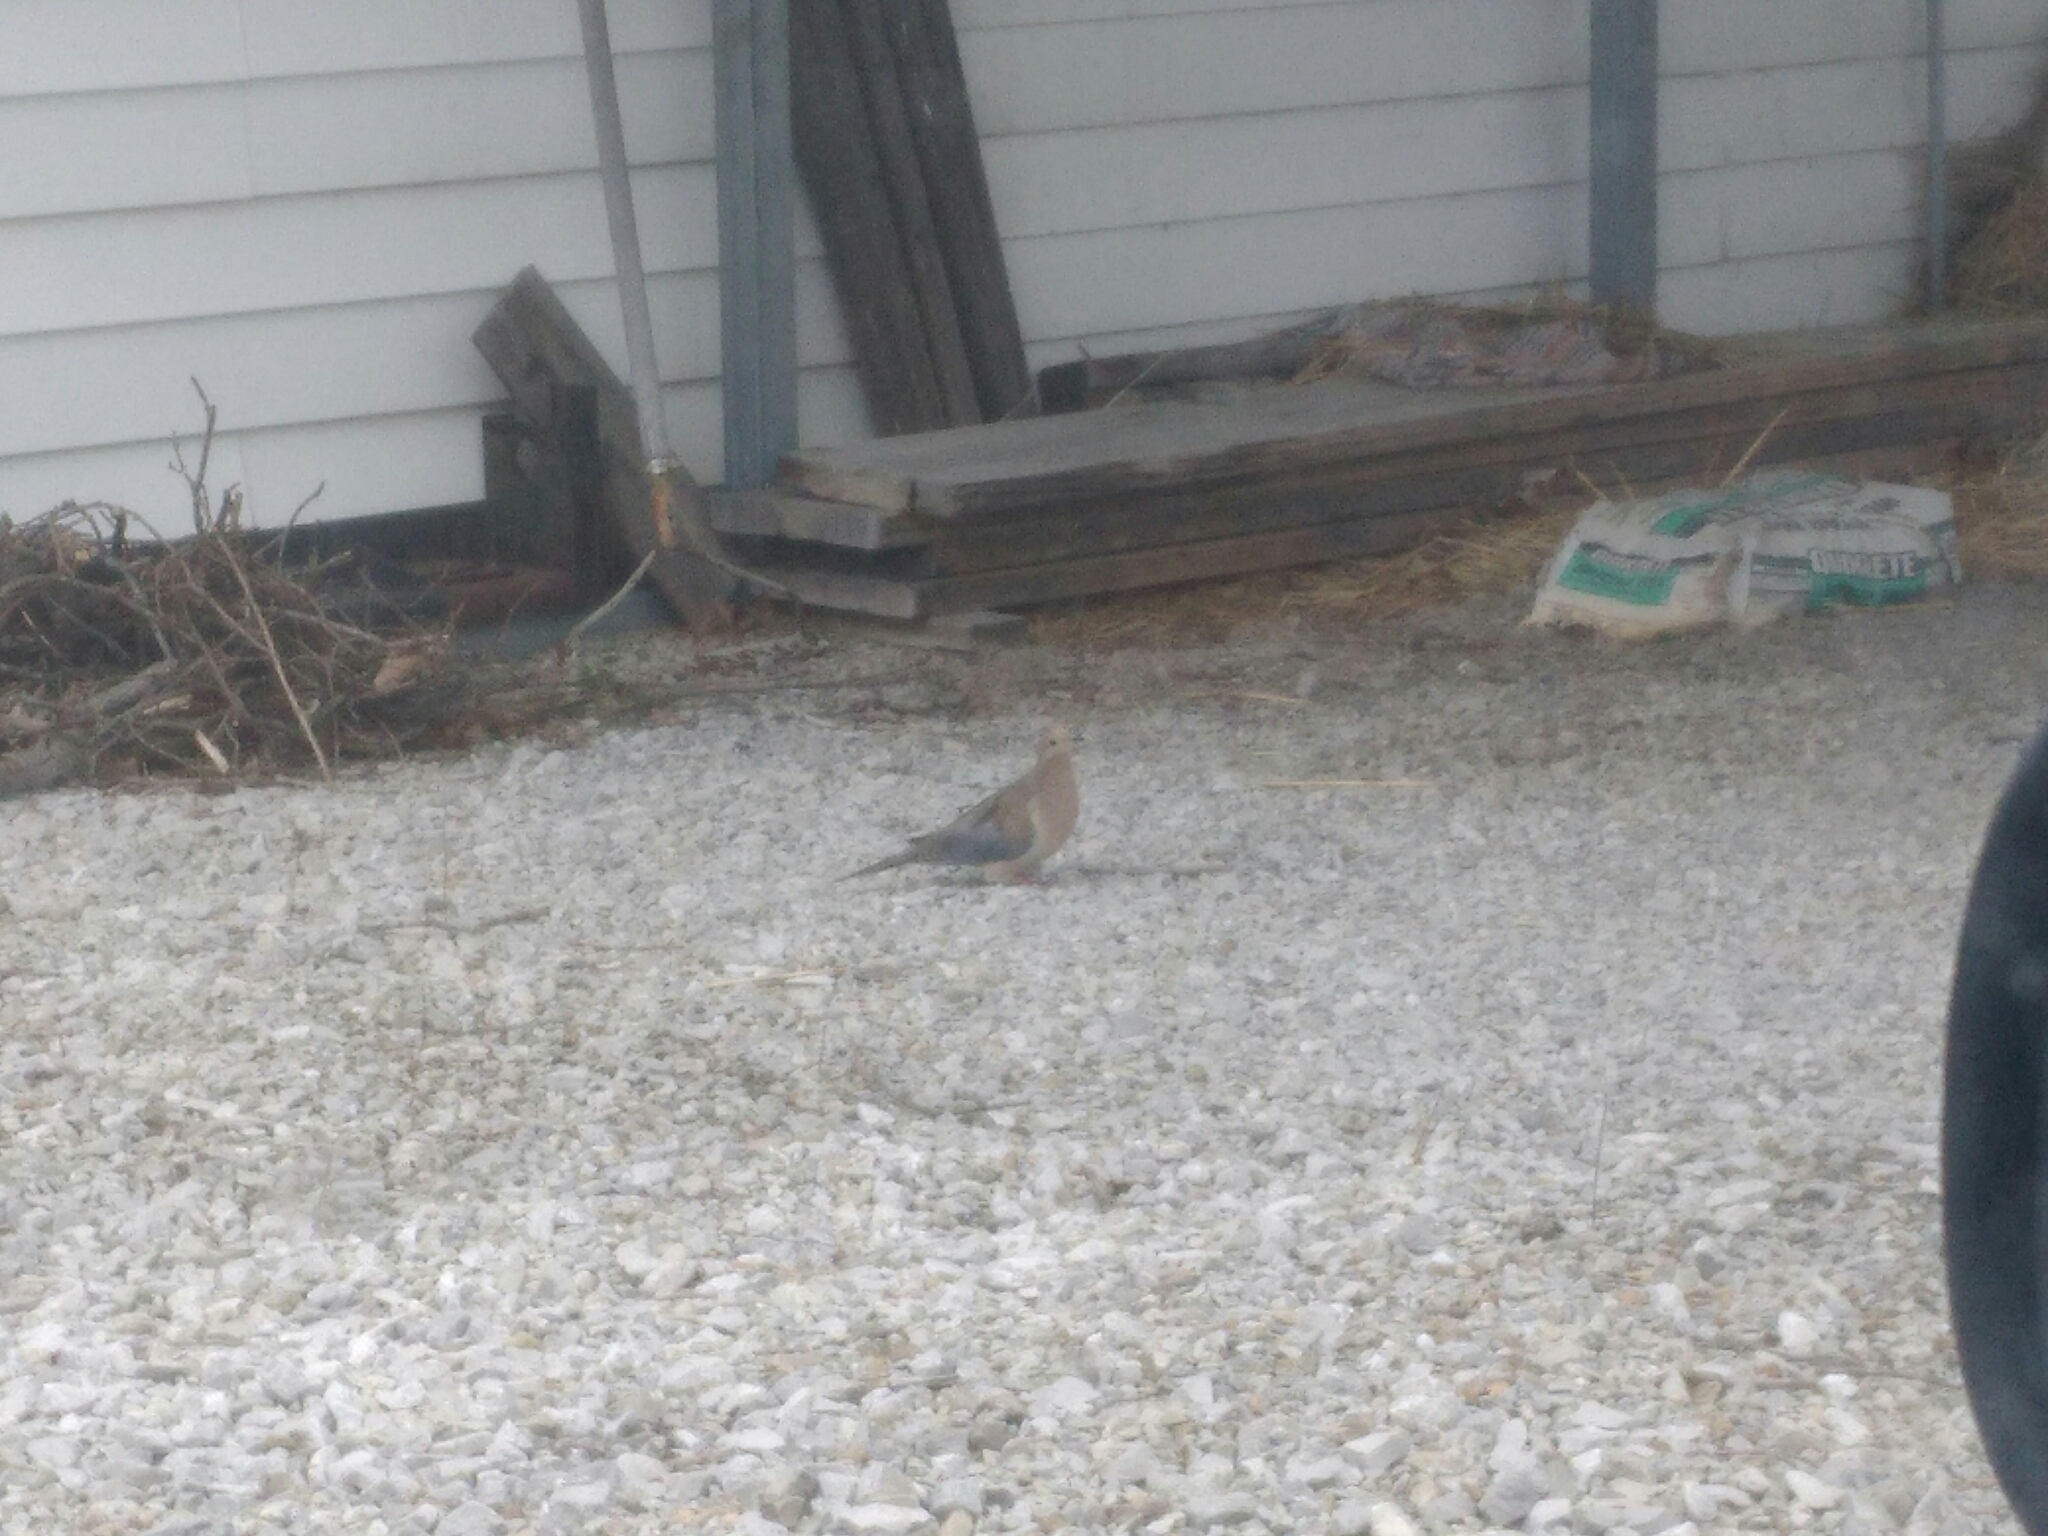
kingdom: Animalia
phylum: Chordata
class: Aves
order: Columbiformes
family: Columbidae
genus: Zenaida
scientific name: Zenaida macroura
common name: Mourning dove
